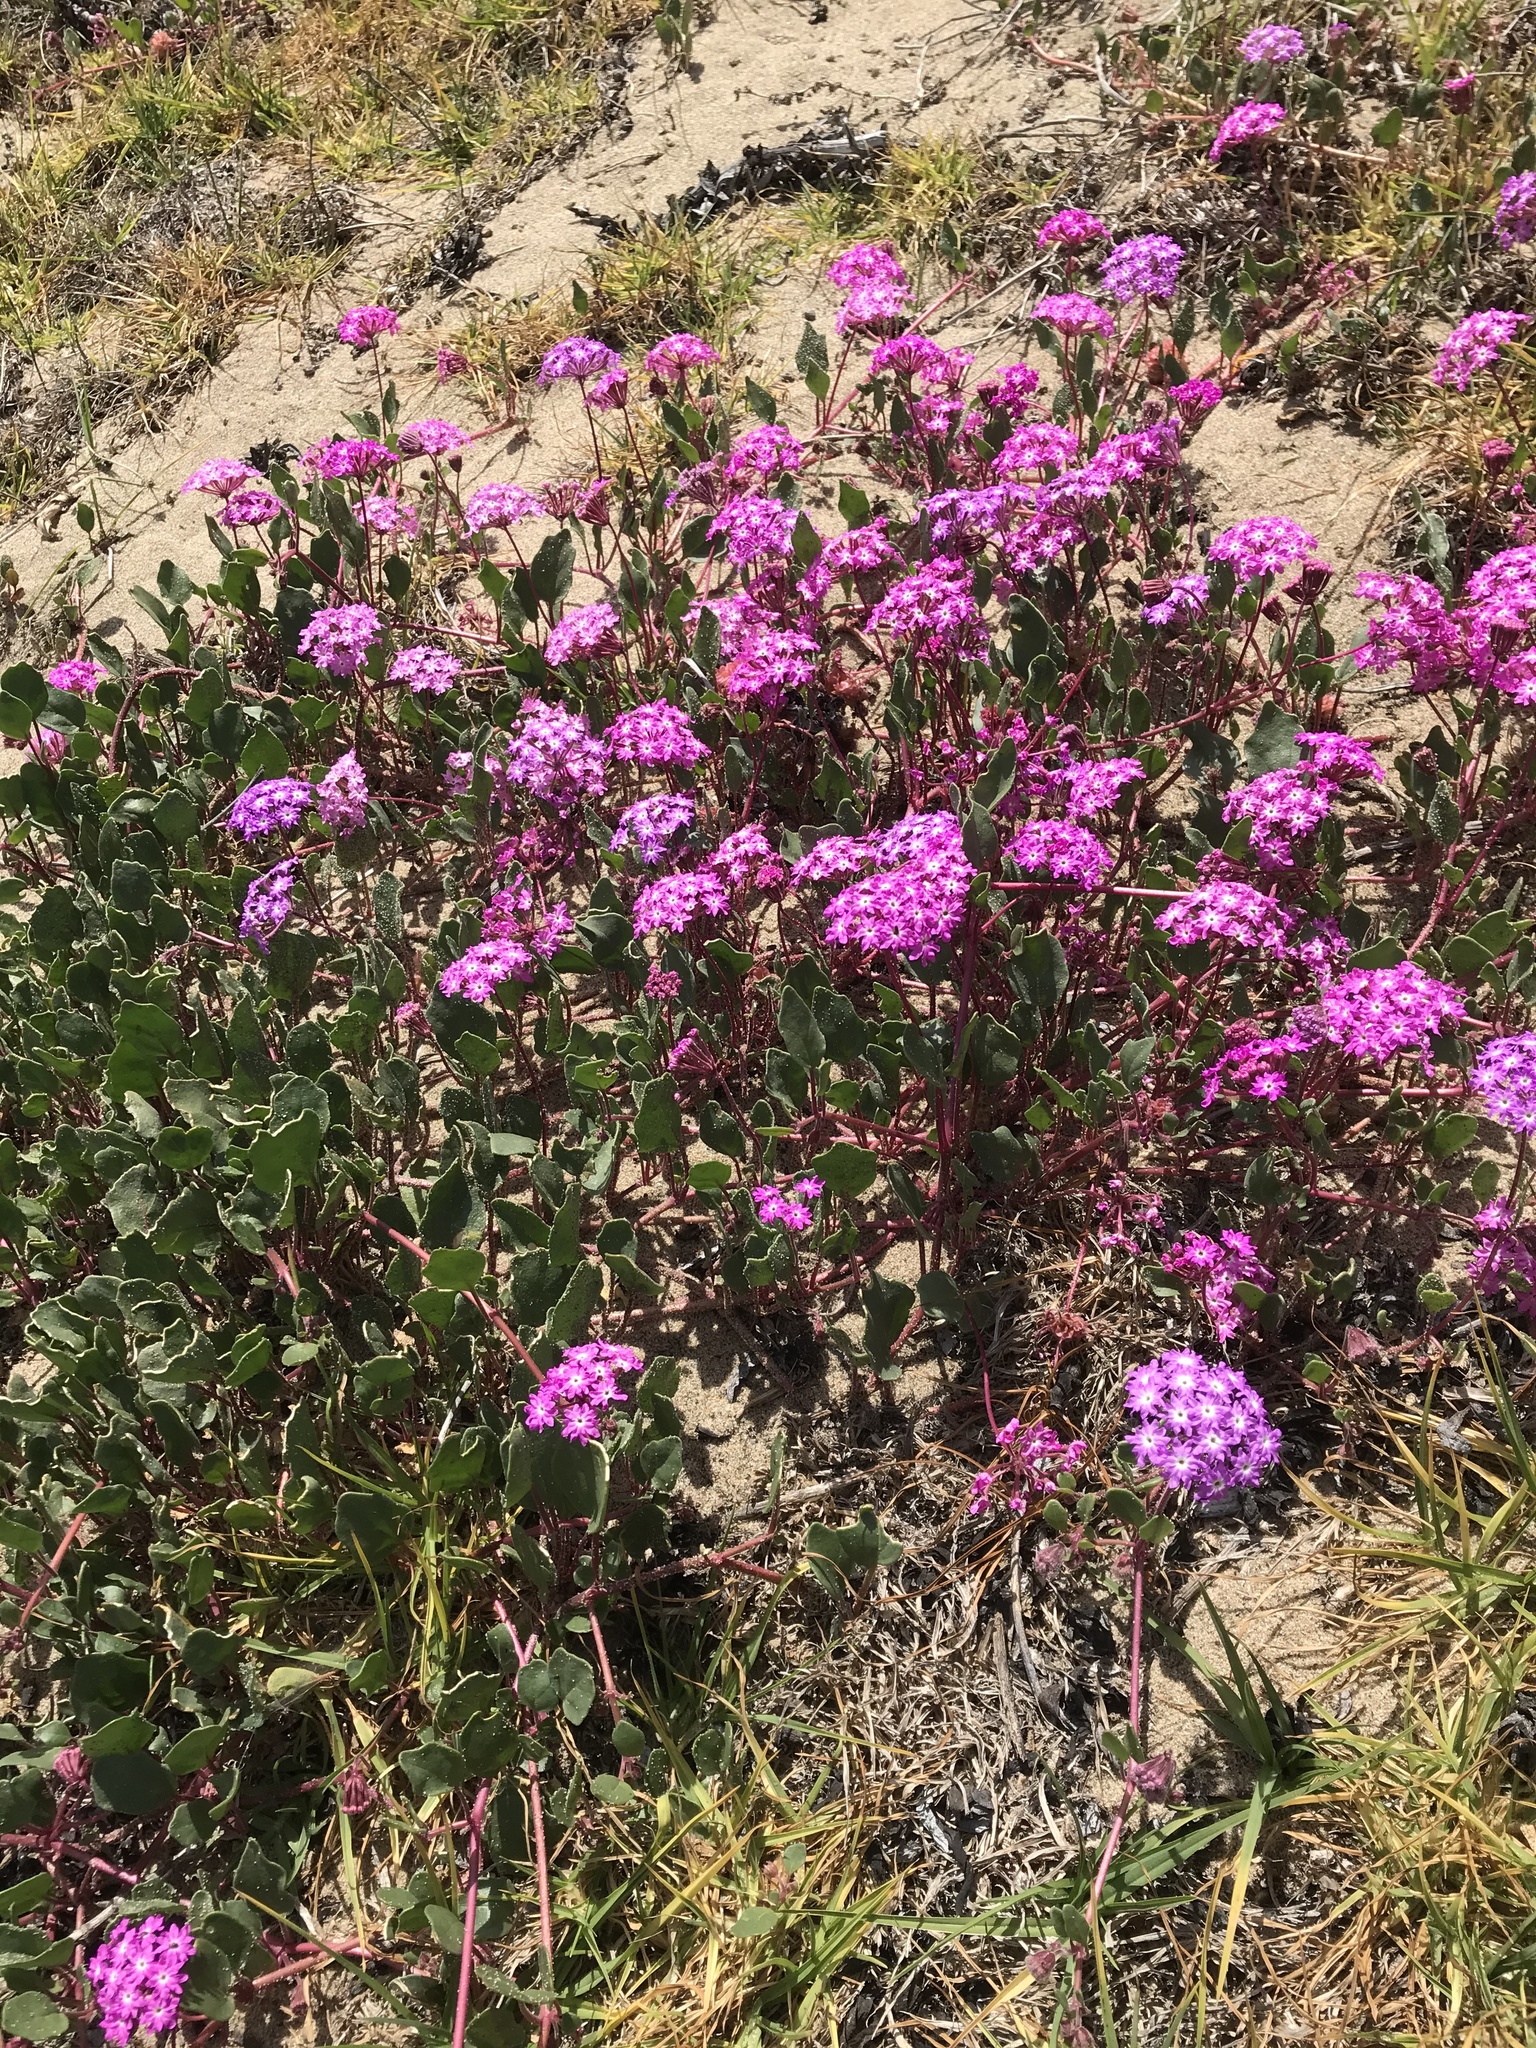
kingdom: Plantae
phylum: Tracheophyta
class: Magnoliopsida
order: Caryophyllales
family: Nyctaginaceae
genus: Abronia
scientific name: Abronia umbellata
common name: Sand-verbena
